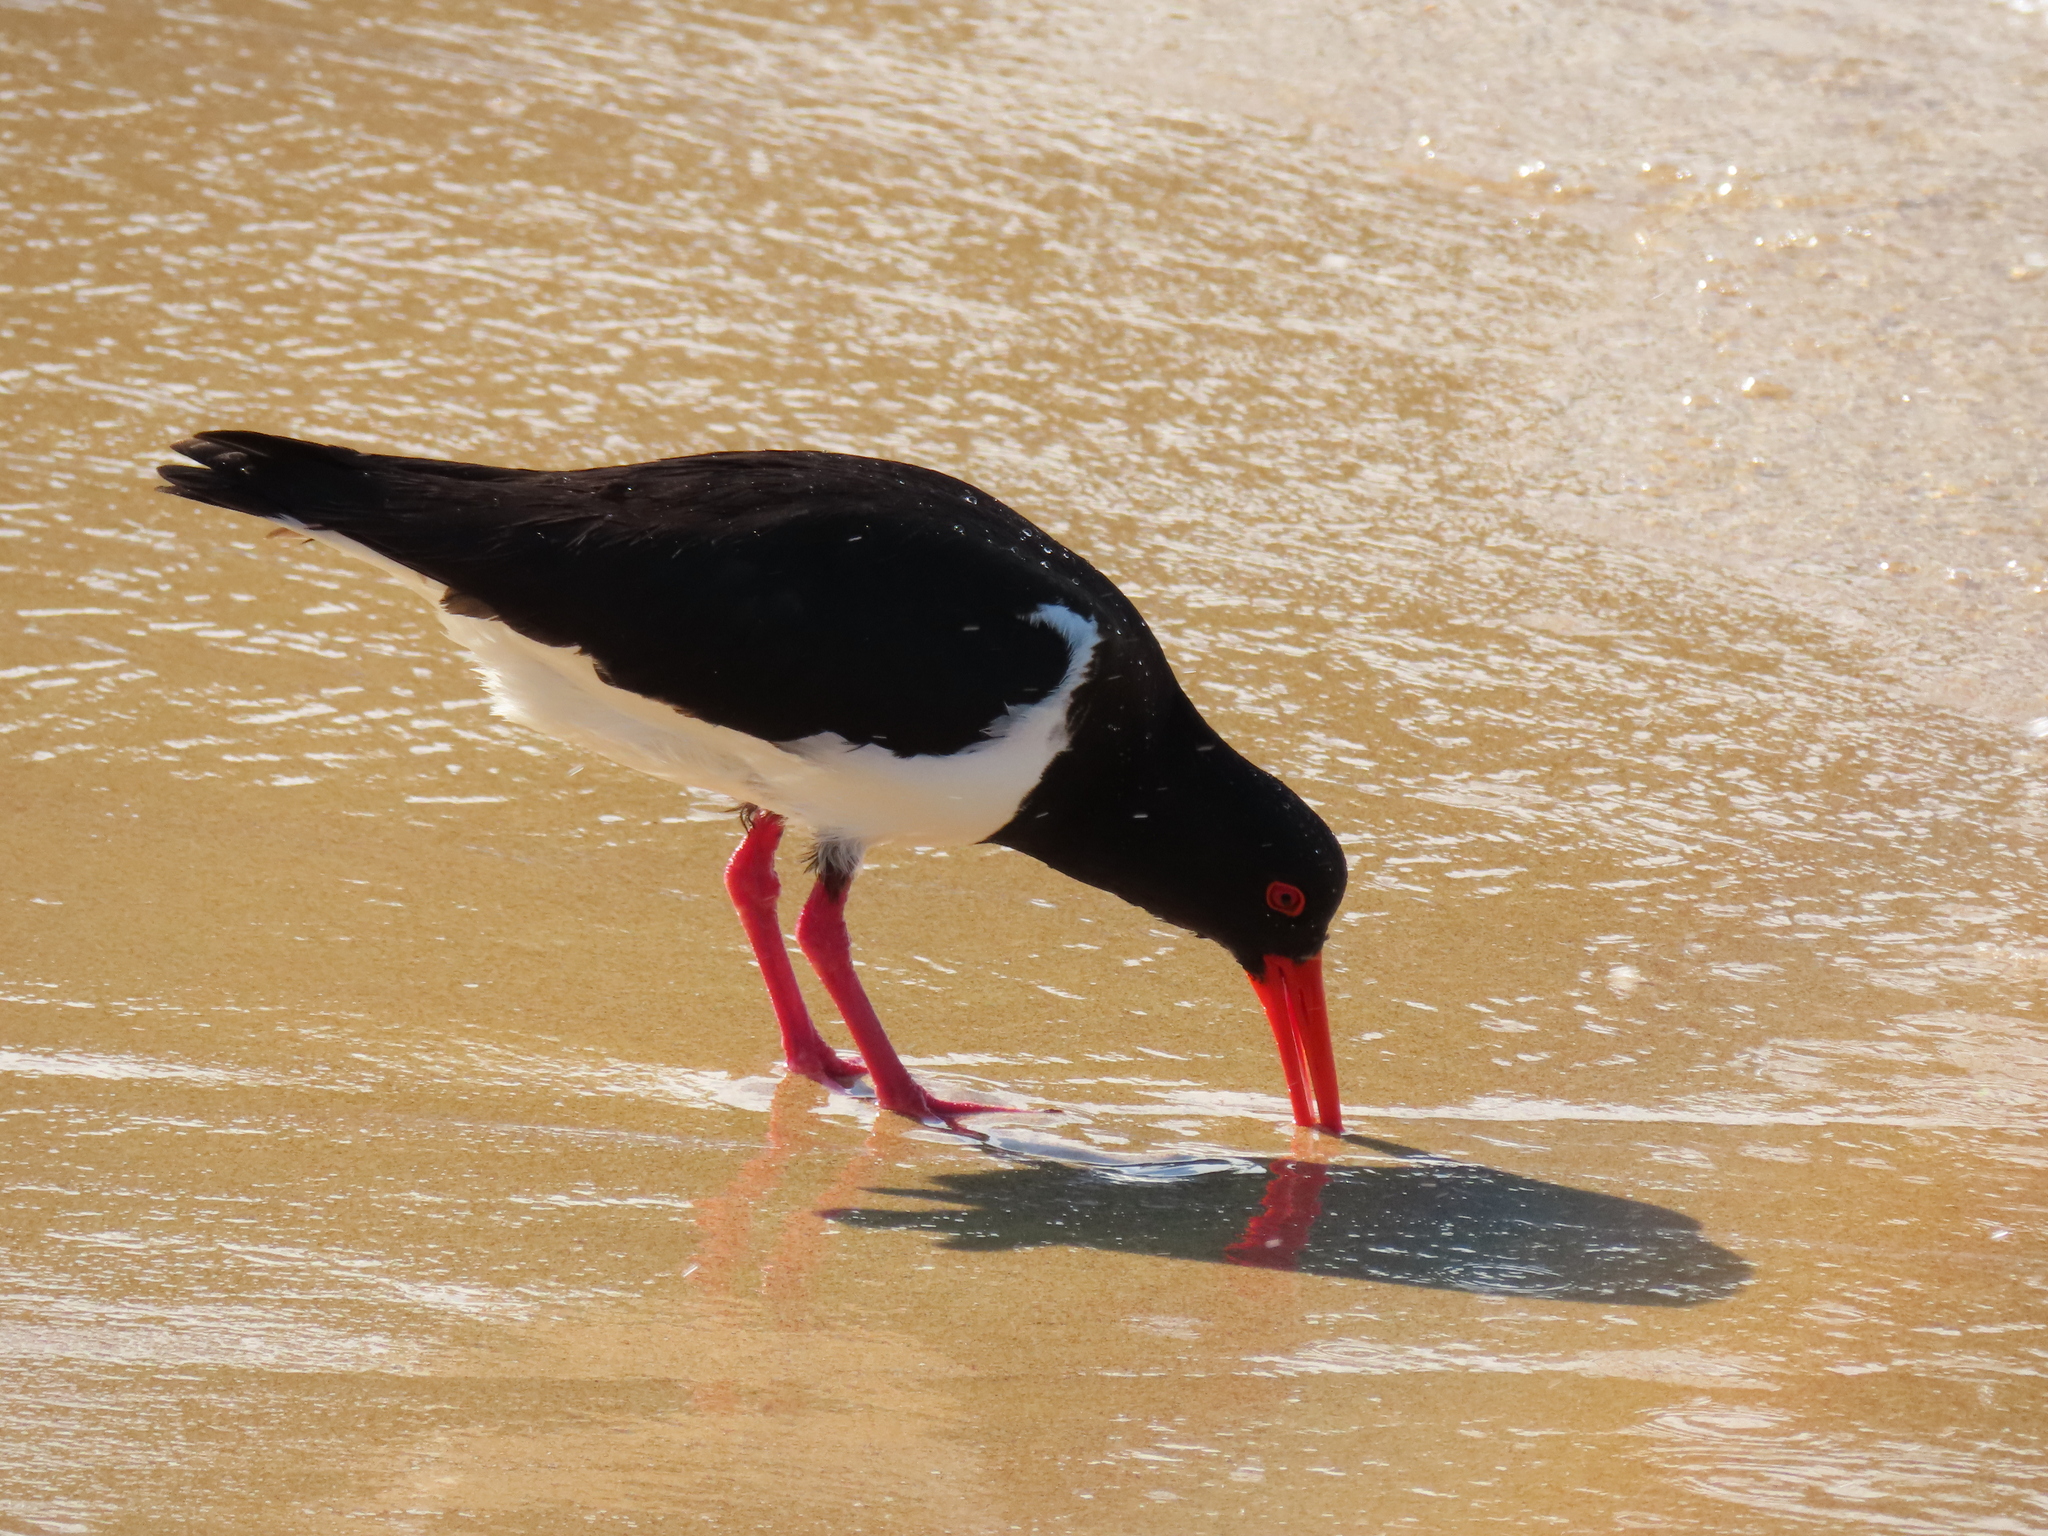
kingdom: Animalia
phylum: Chordata
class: Aves
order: Charadriiformes
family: Haematopodidae
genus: Haematopus
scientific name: Haematopus longirostris
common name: Pied oystercatcher
